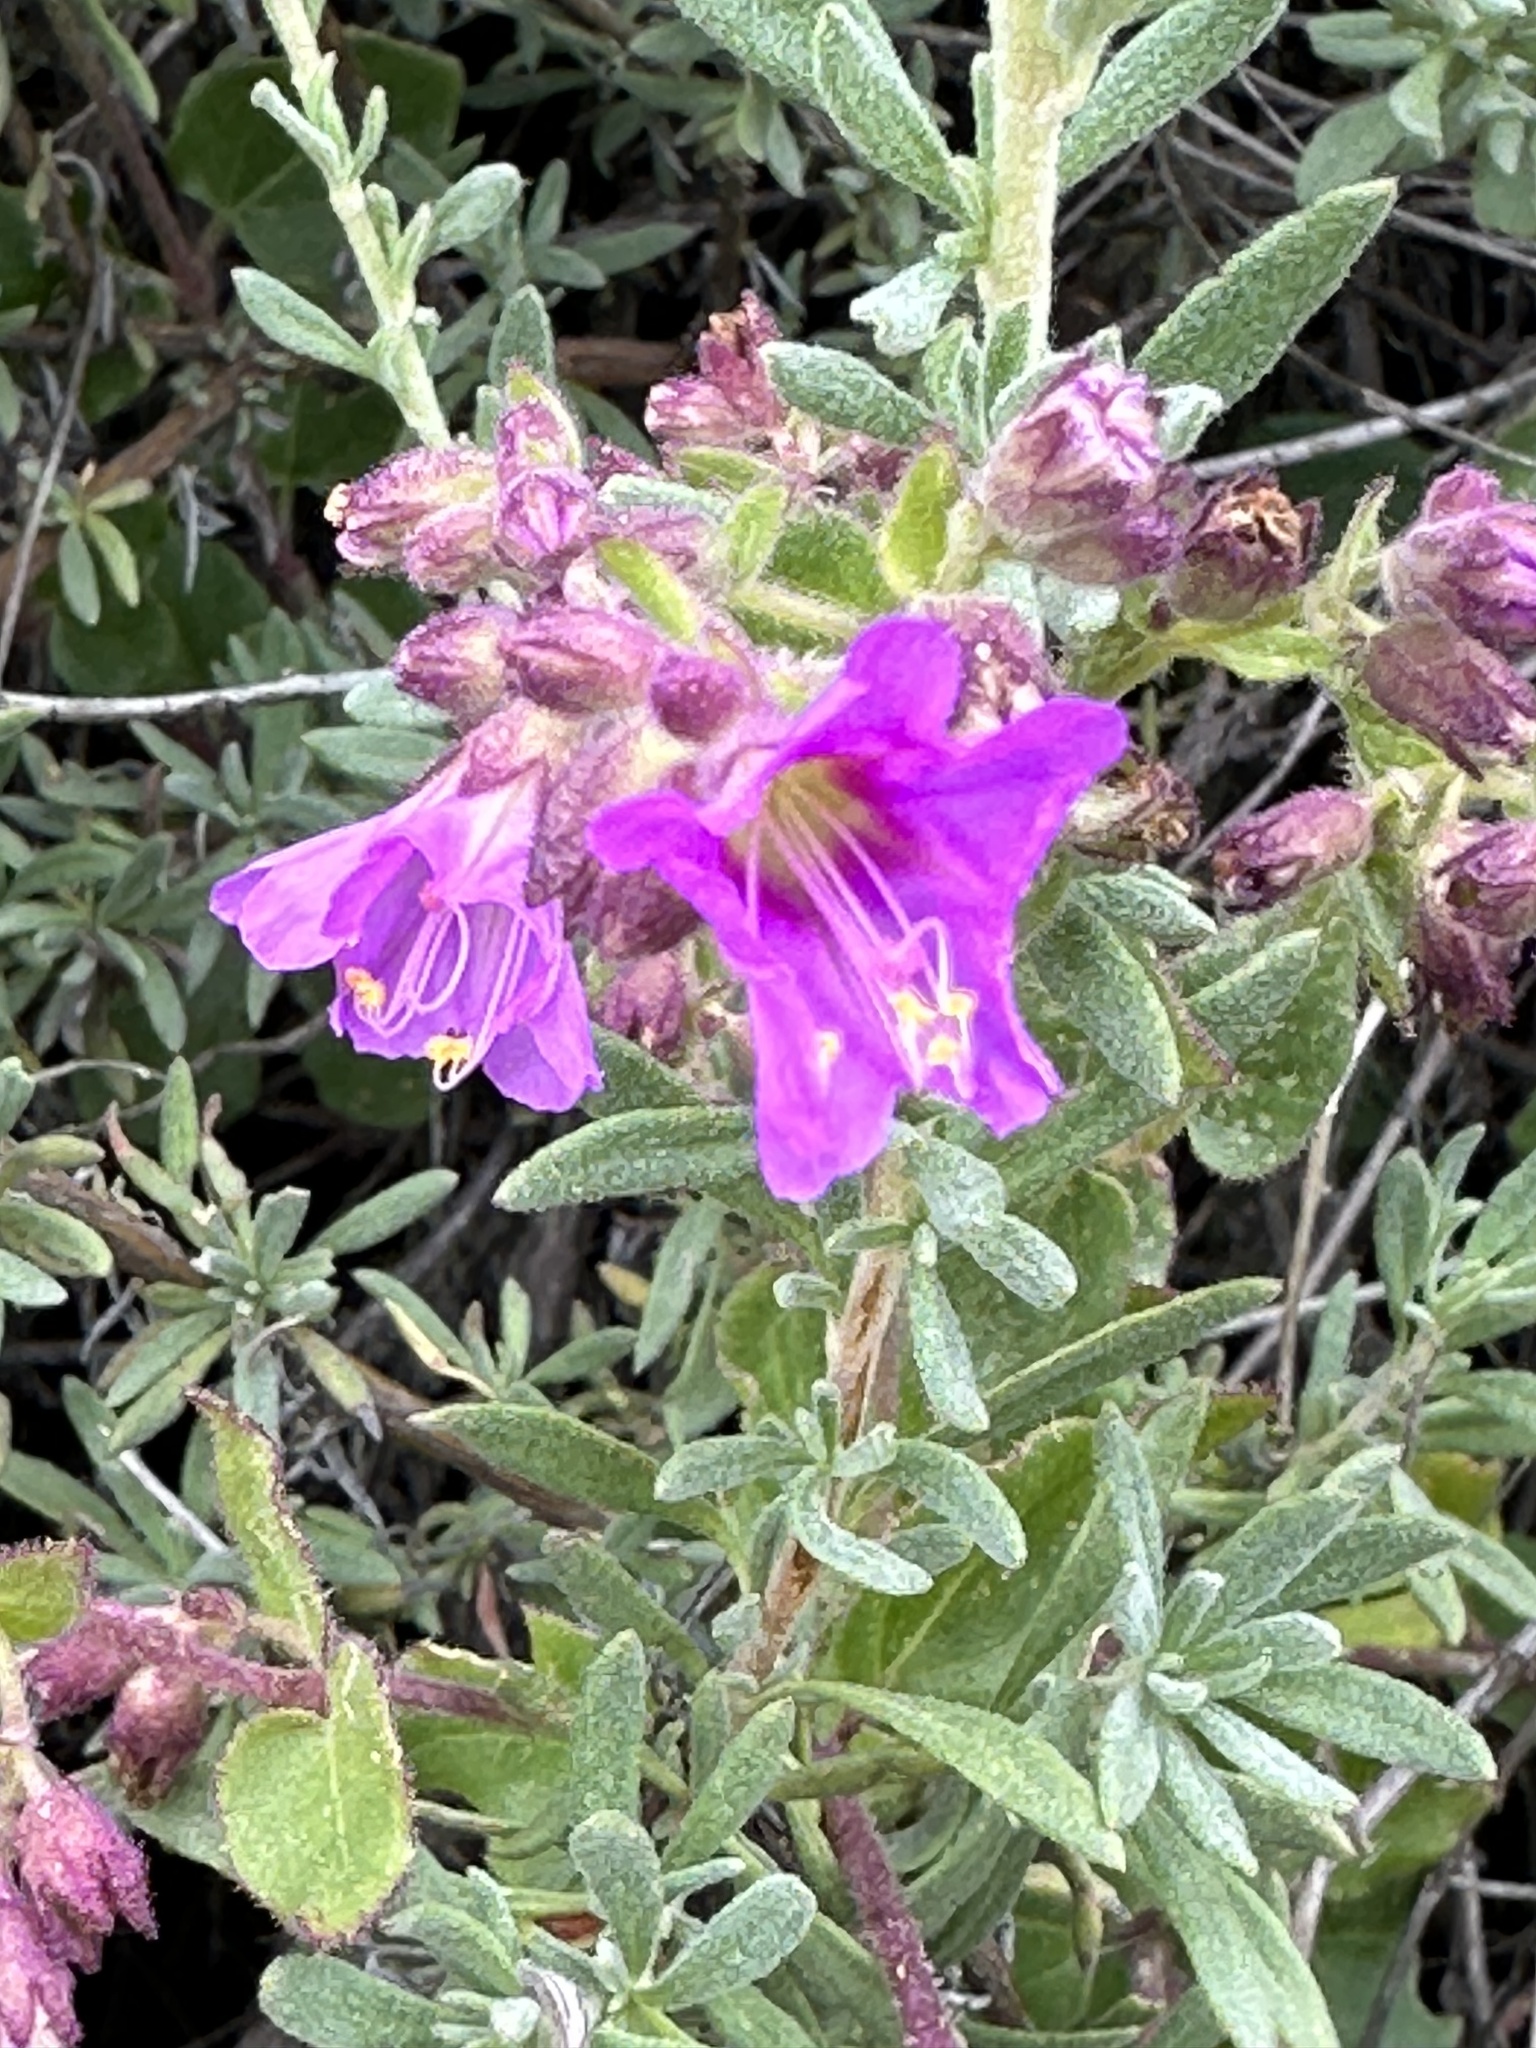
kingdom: Plantae
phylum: Tracheophyta
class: Magnoliopsida
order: Caryophyllales
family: Nyctaginaceae
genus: Mirabilis
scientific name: Mirabilis laevis
